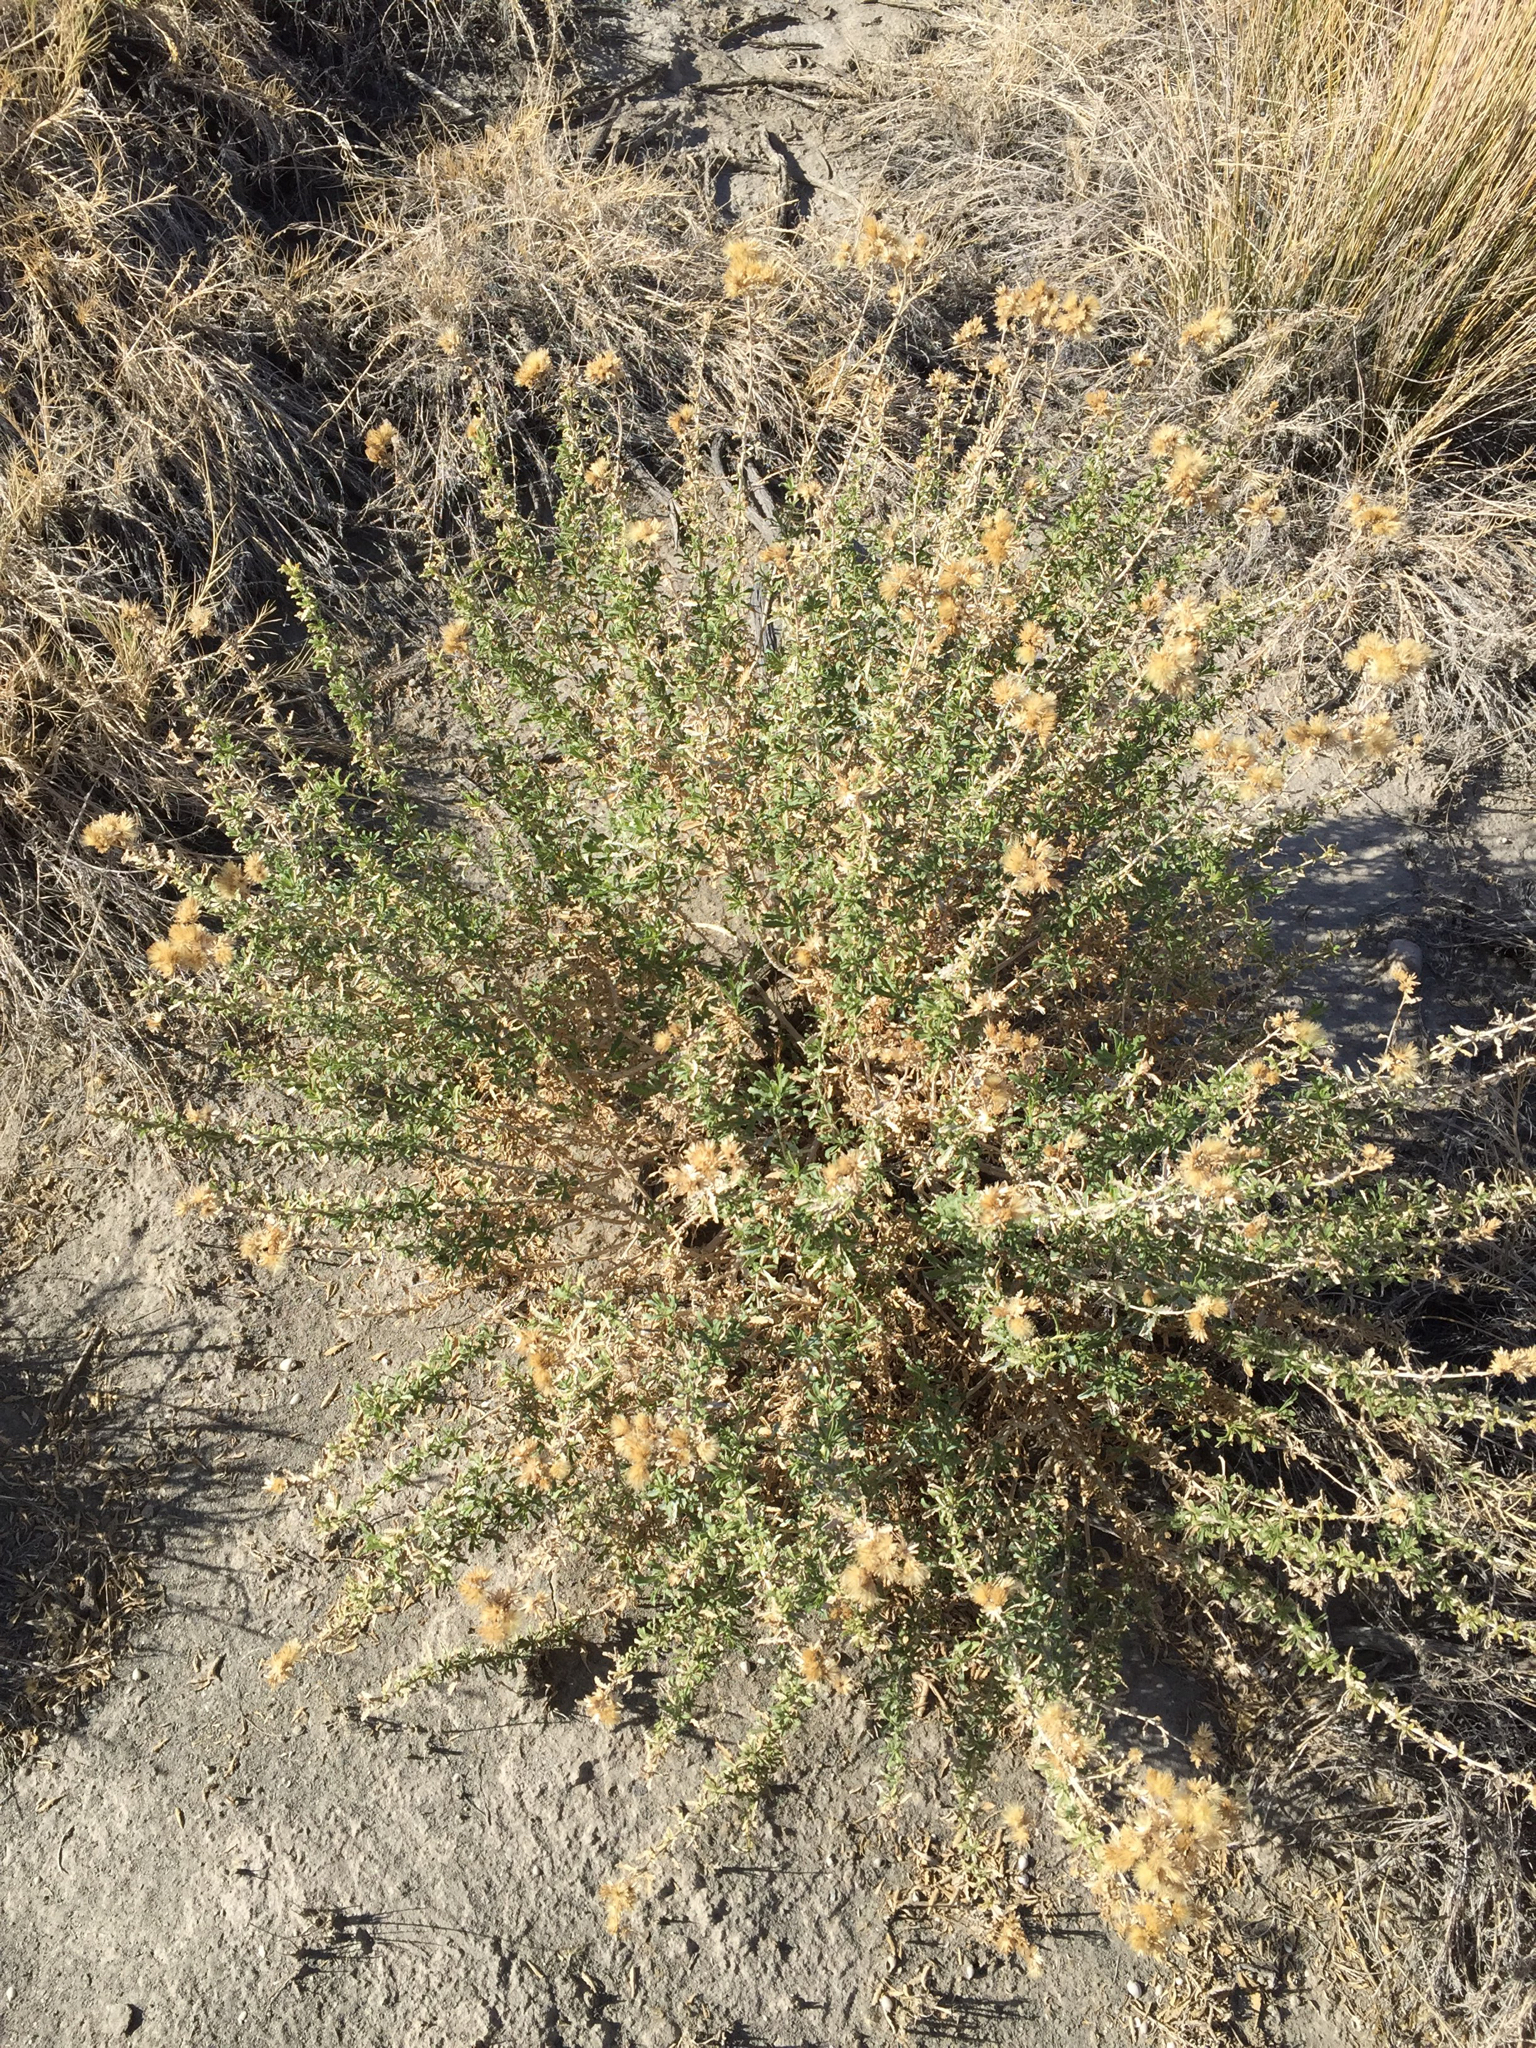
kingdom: Plantae
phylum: Tracheophyta
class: Magnoliopsida
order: Asterales
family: Asteraceae
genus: Isocoma
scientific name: Isocoma acradenia
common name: Alkali jimmyweed
